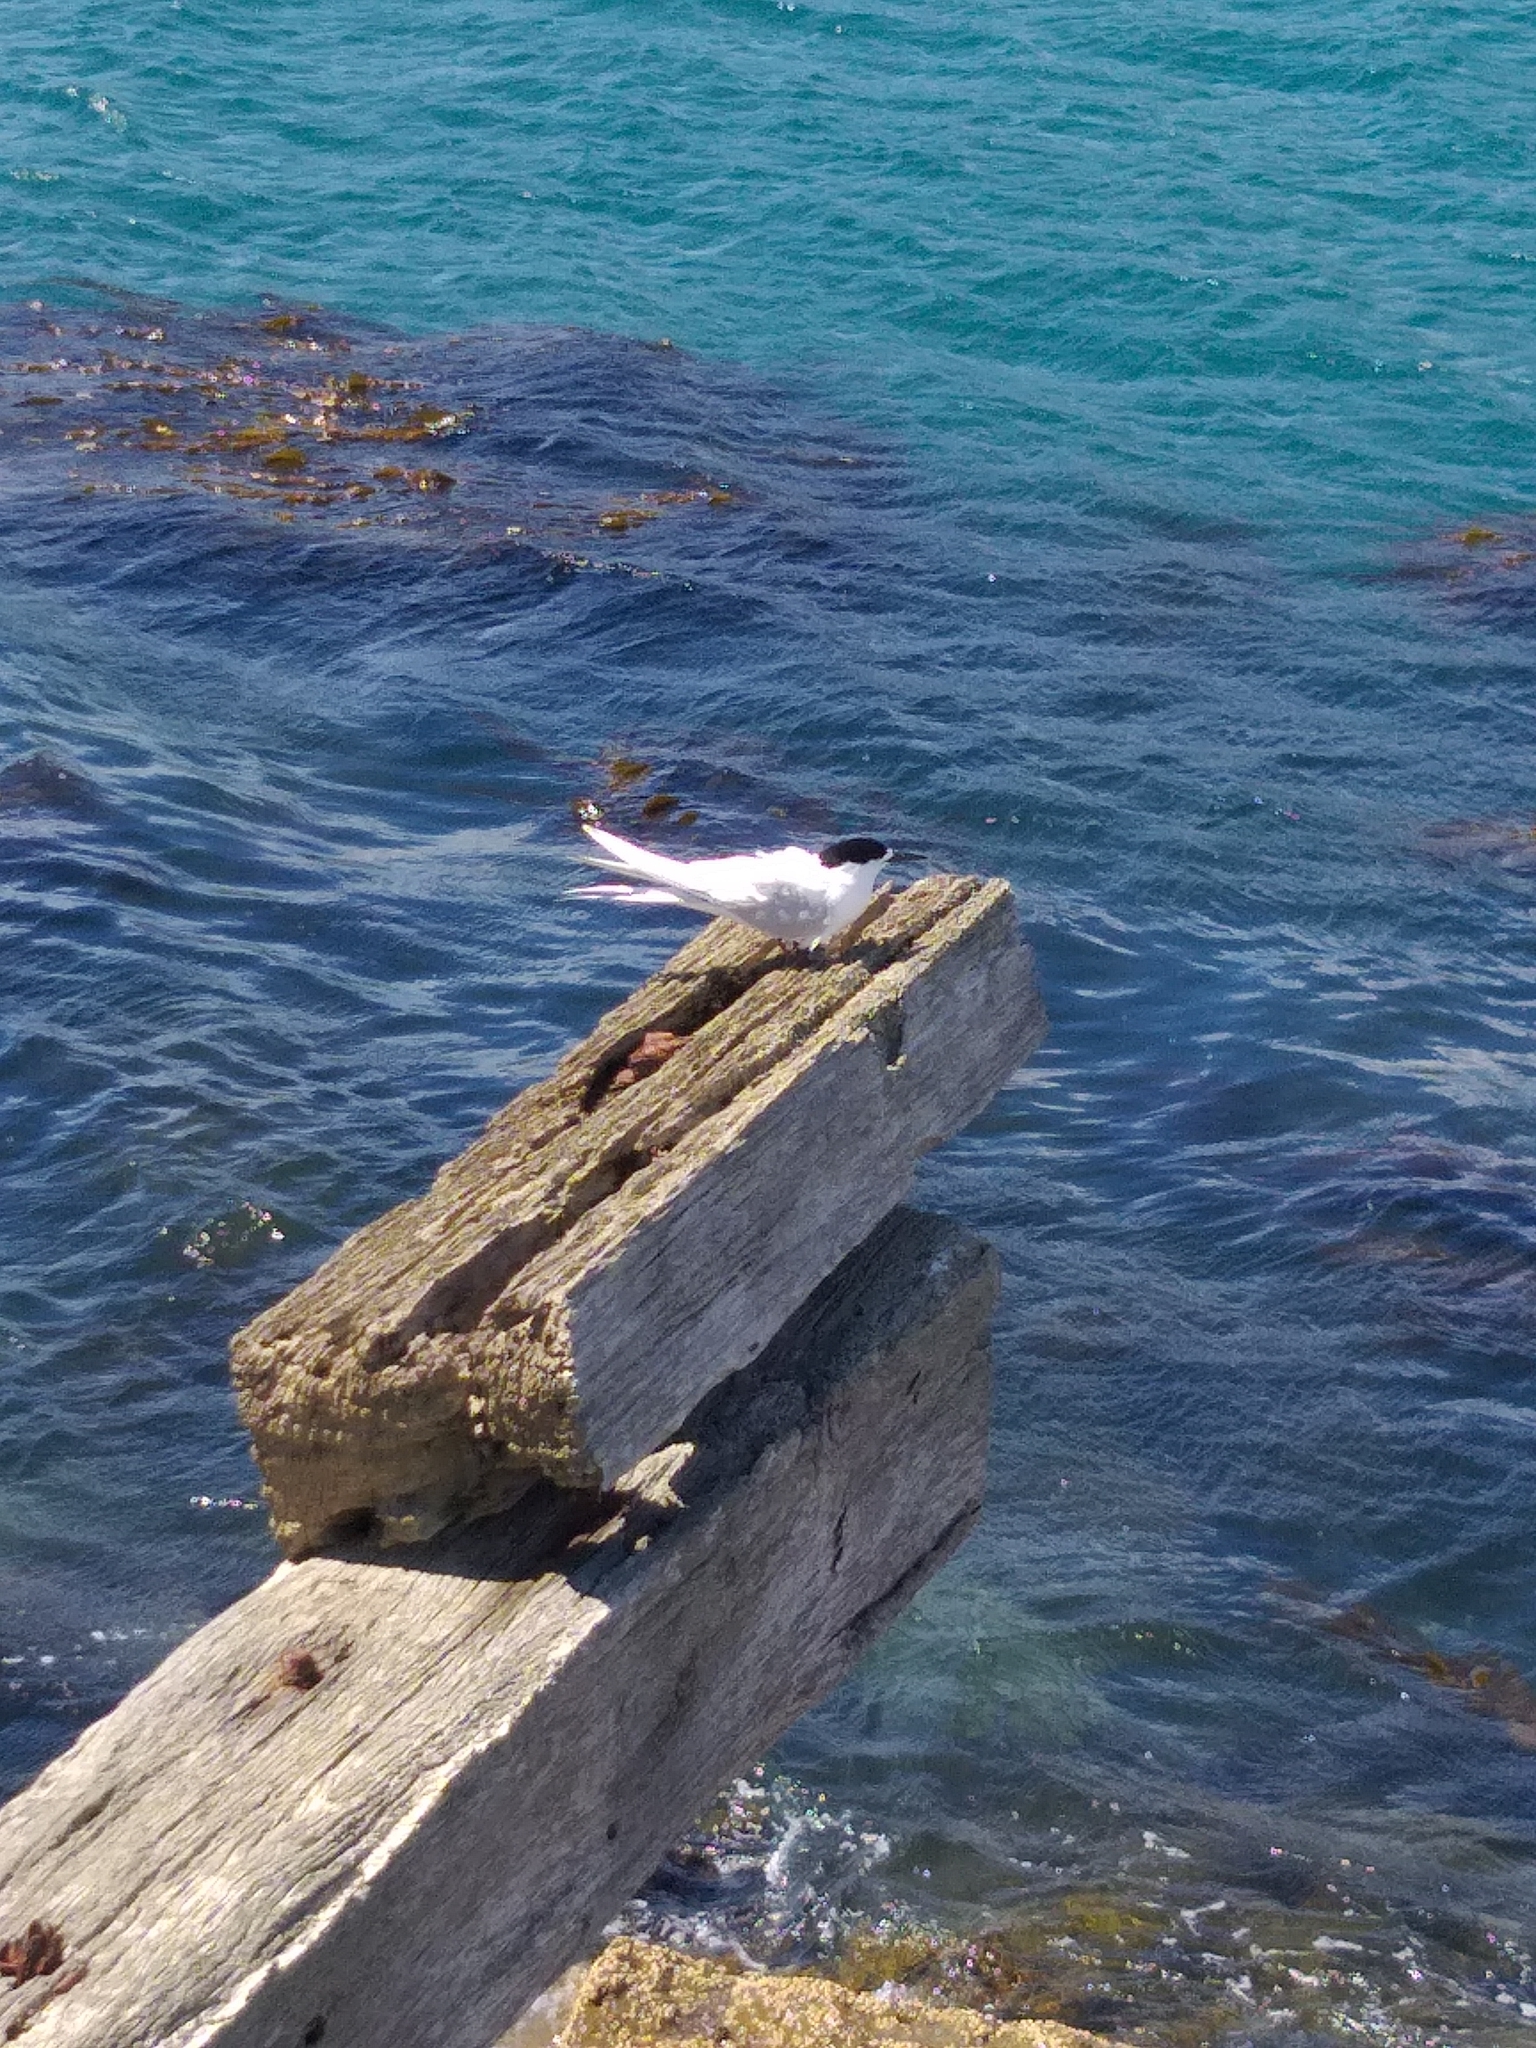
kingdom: Animalia
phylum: Chordata
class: Aves
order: Charadriiformes
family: Laridae
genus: Sterna
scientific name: Sterna striata
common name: White-fronted tern
